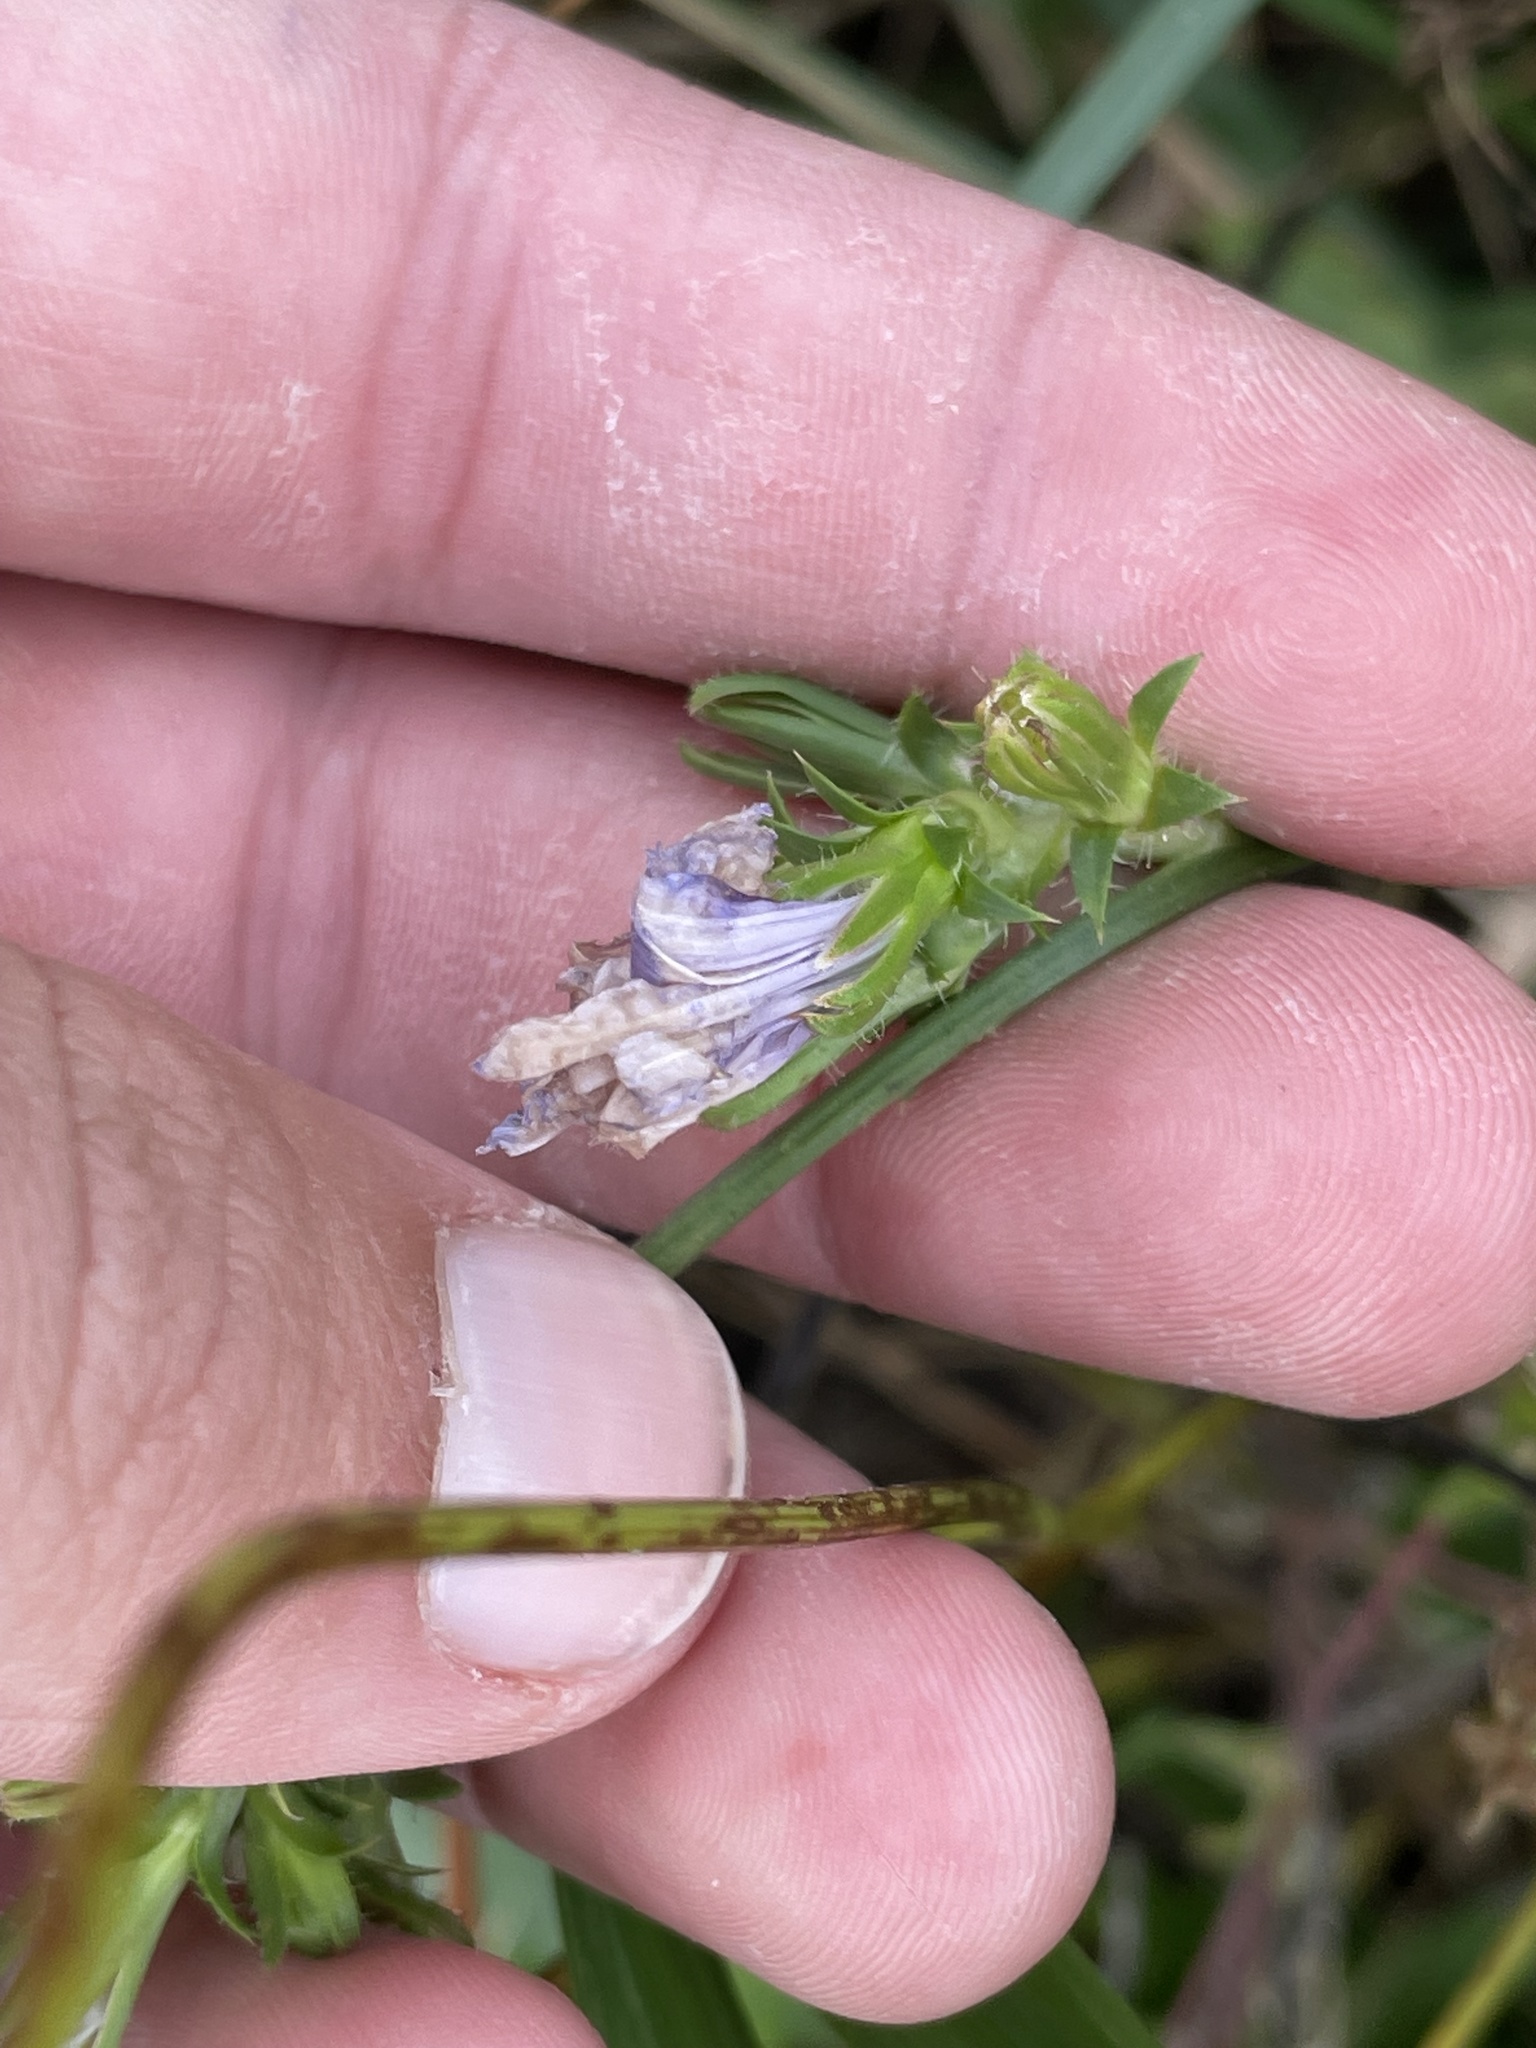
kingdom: Plantae
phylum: Tracheophyta
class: Magnoliopsida
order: Asterales
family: Asteraceae
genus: Cichorium
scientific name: Cichorium intybus
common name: Chicory
